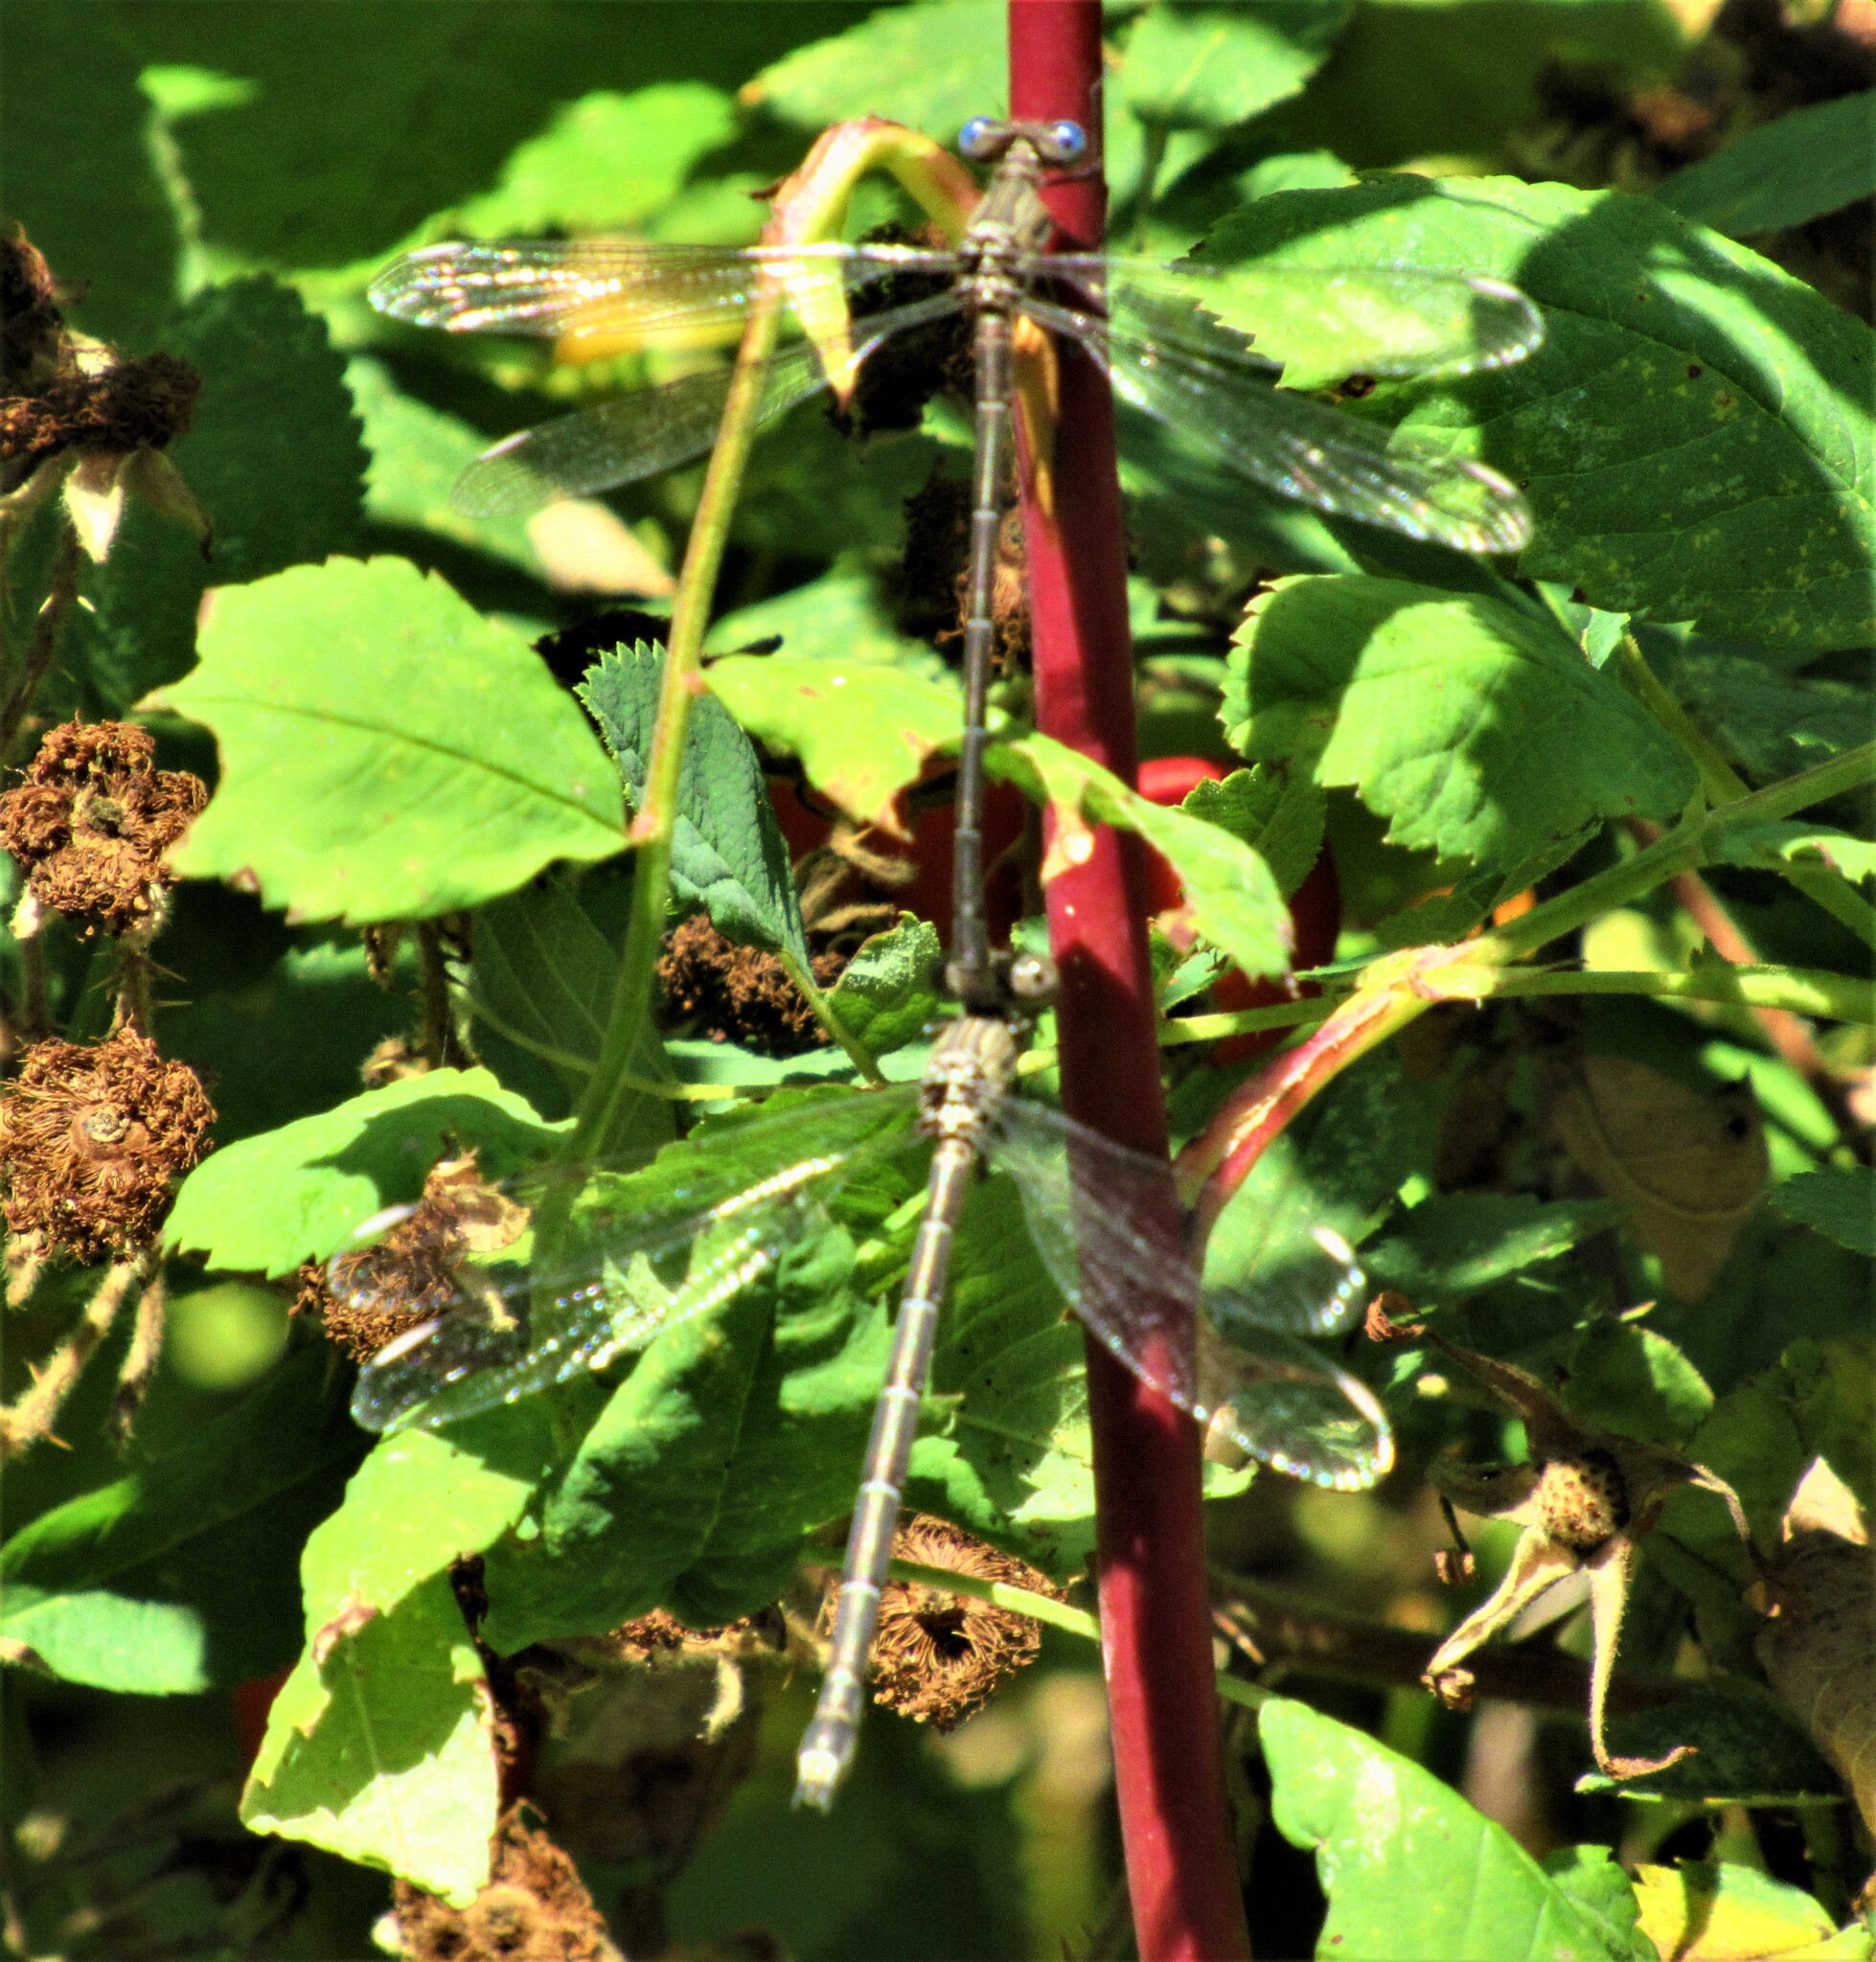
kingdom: Animalia
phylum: Arthropoda
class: Insecta
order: Odonata
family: Lestidae
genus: Archilestes
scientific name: Archilestes californicus
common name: California spreadwing
